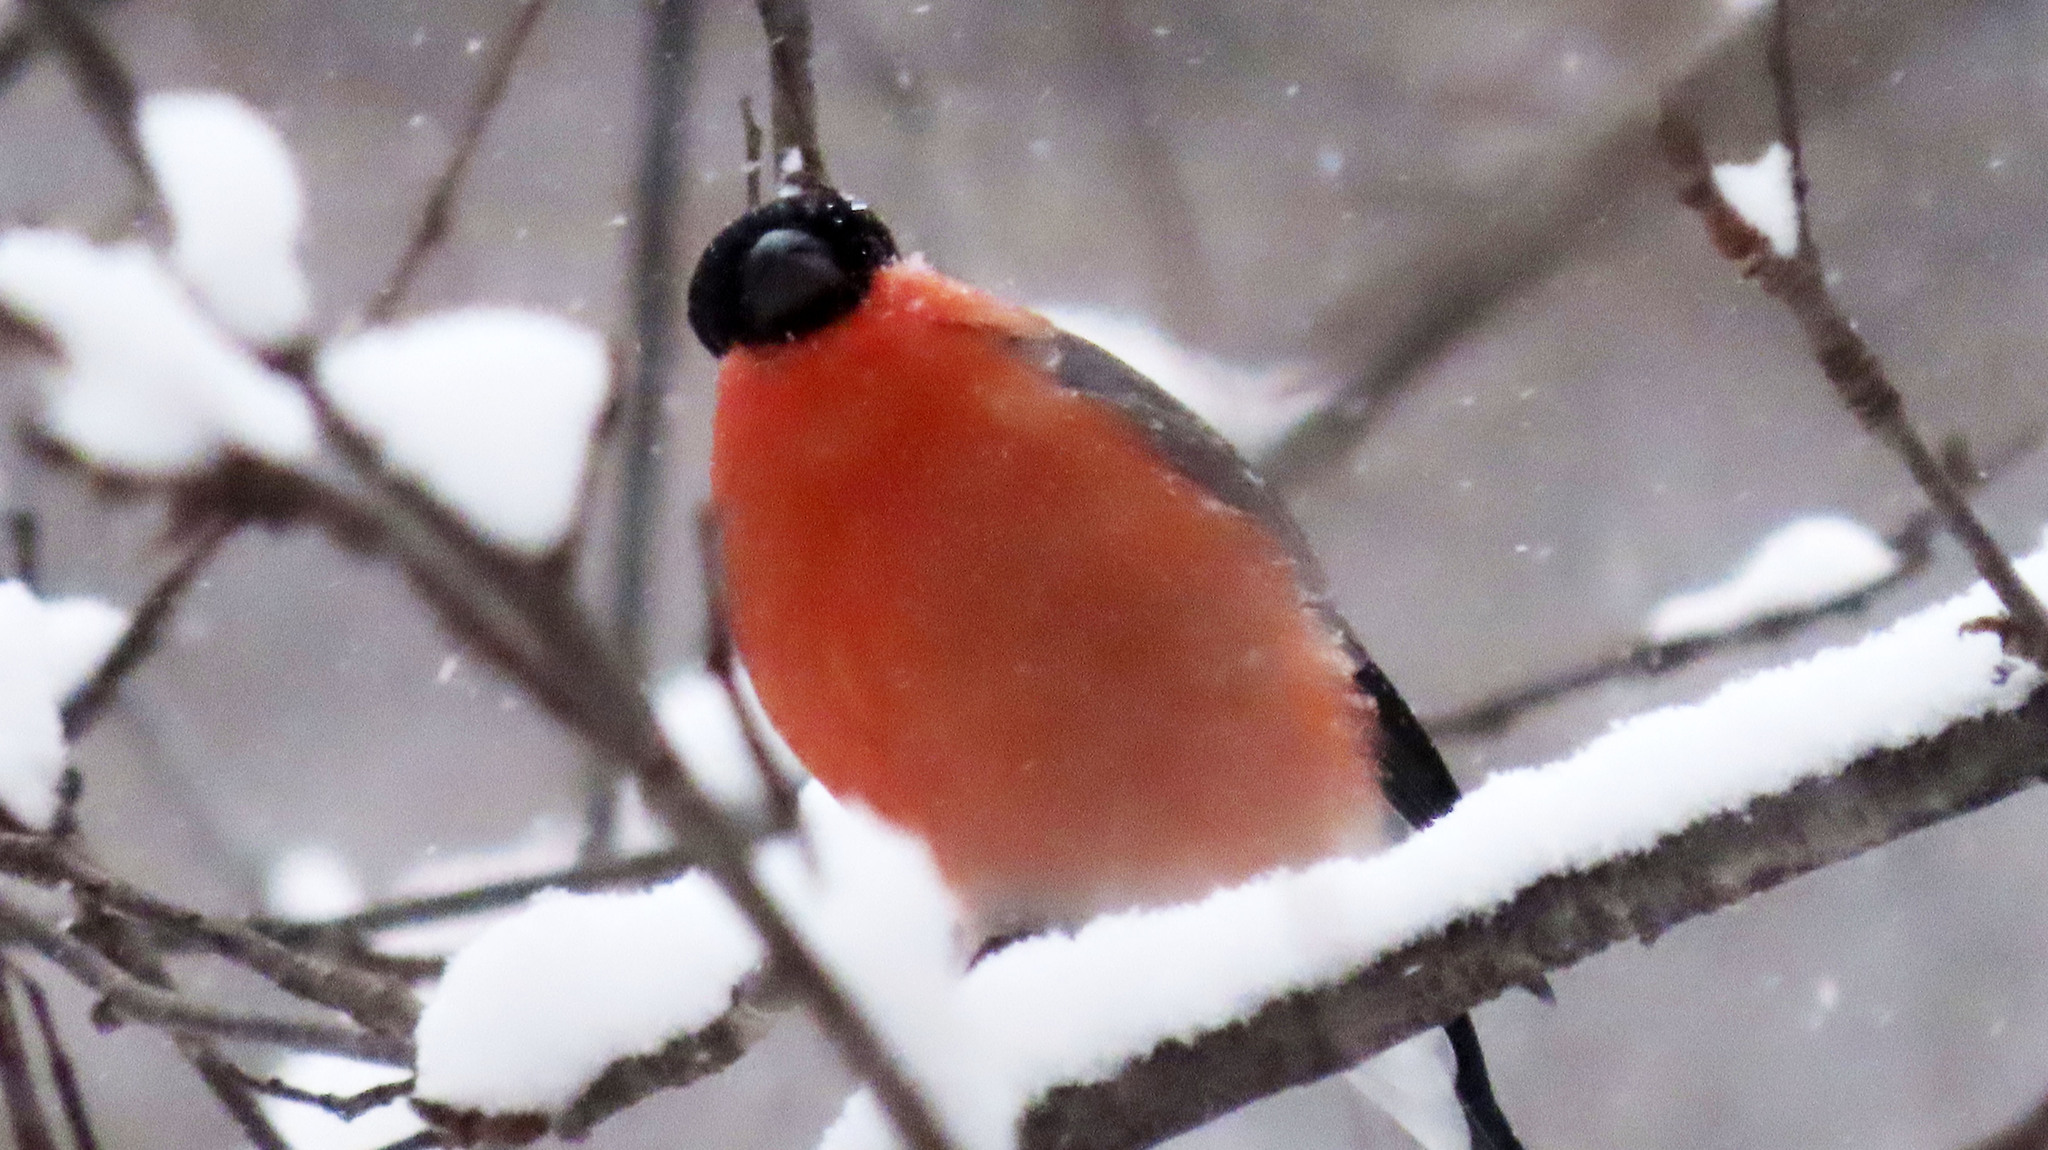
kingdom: Animalia
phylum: Chordata
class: Aves
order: Passeriformes
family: Fringillidae
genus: Pyrrhula
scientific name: Pyrrhula pyrrhula
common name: Eurasian bullfinch
